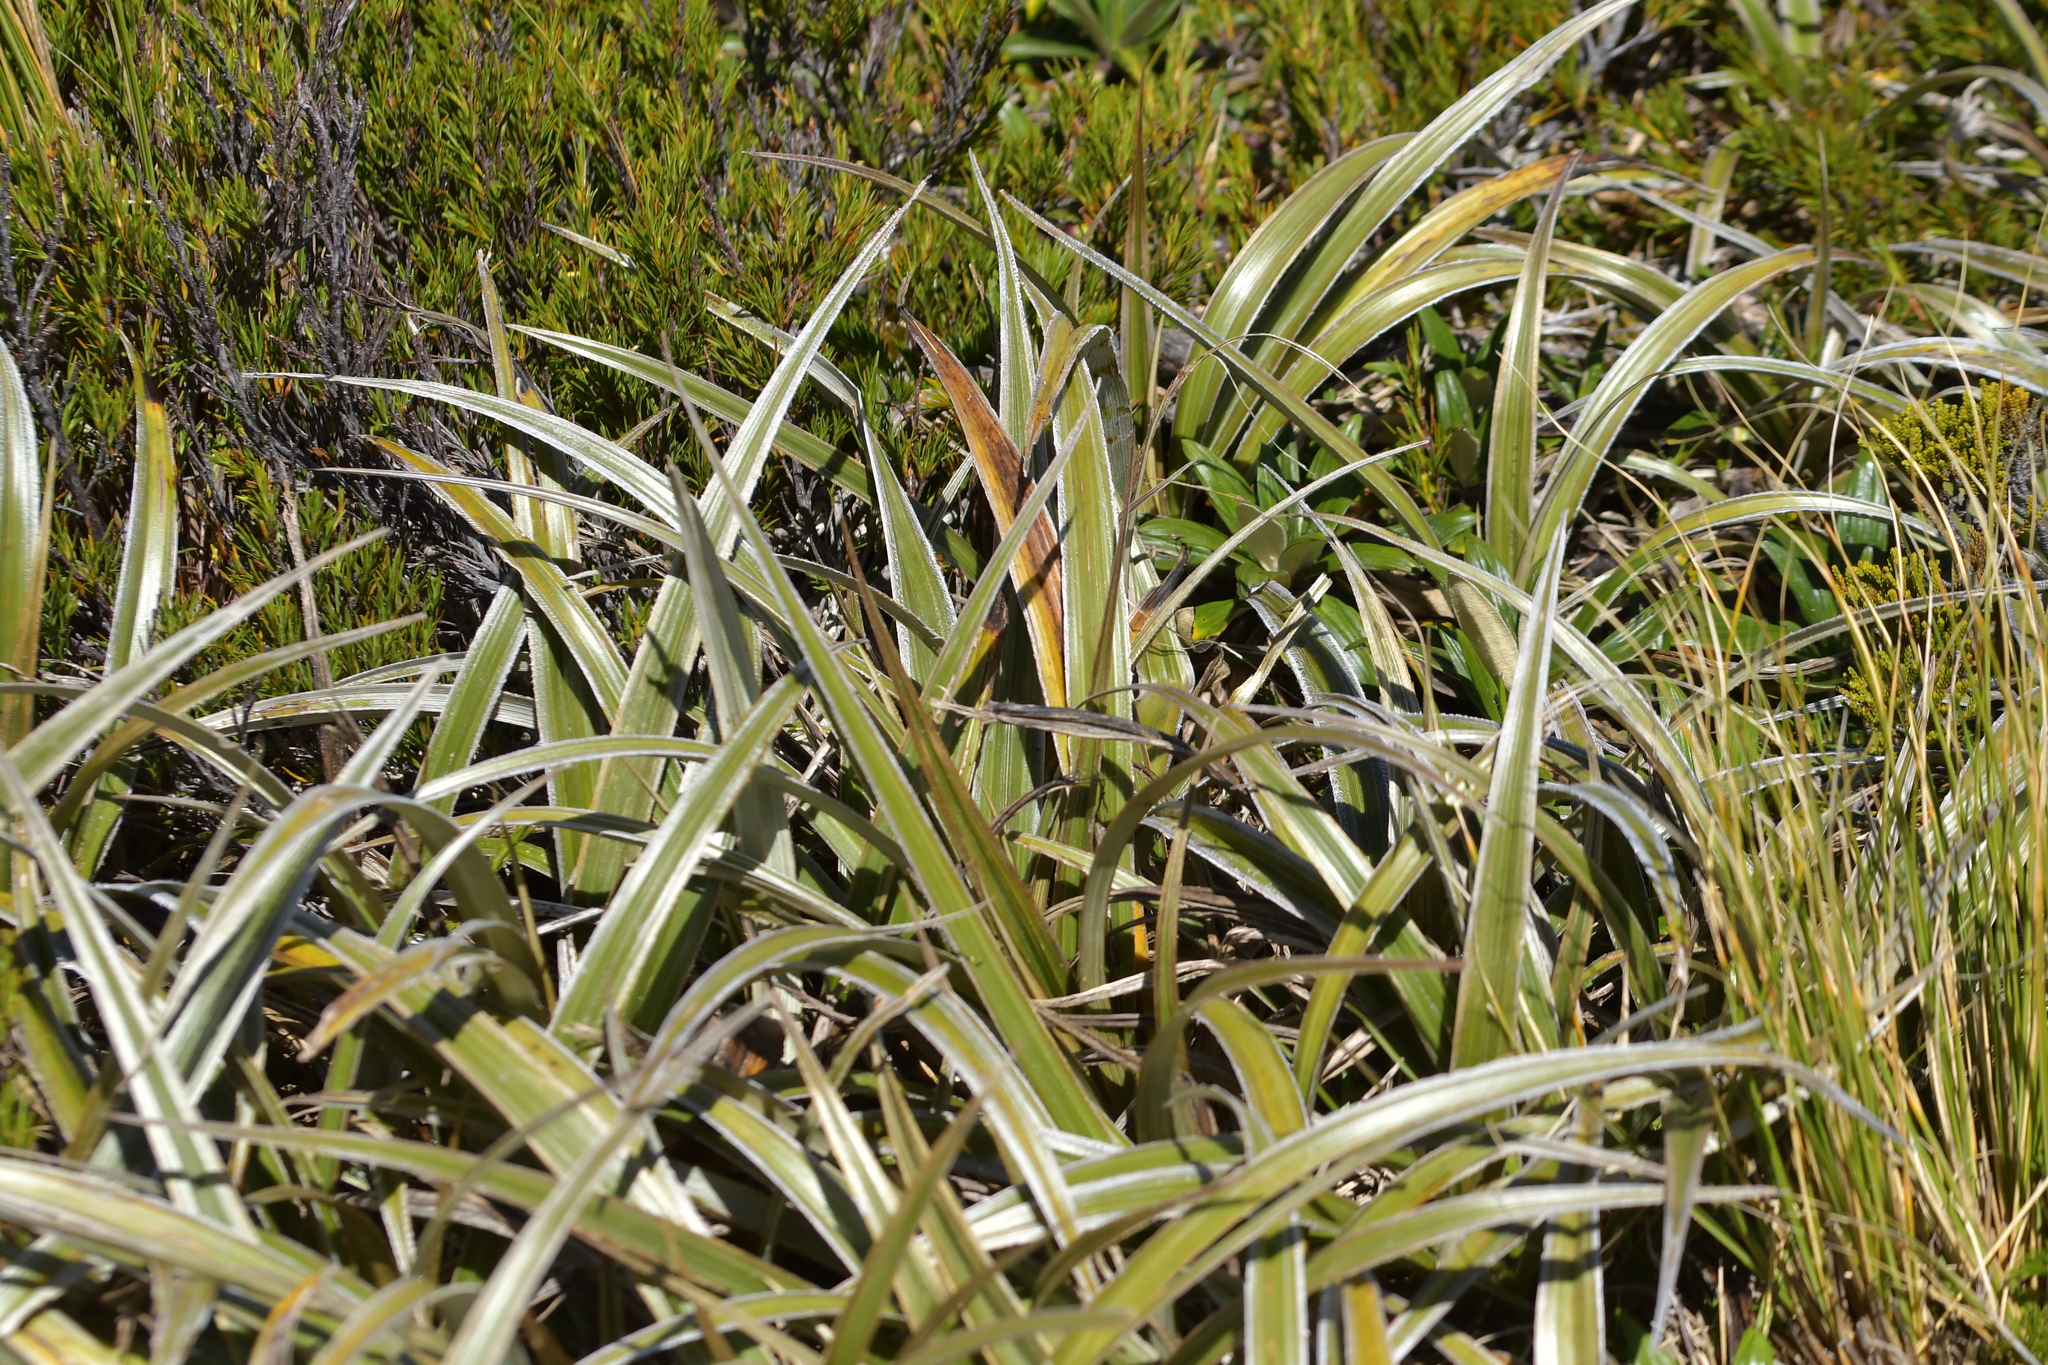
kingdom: Plantae
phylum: Tracheophyta
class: Liliopsida
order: Asparagales
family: Asteliaceae
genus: Astelia
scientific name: Astelia nervosa
